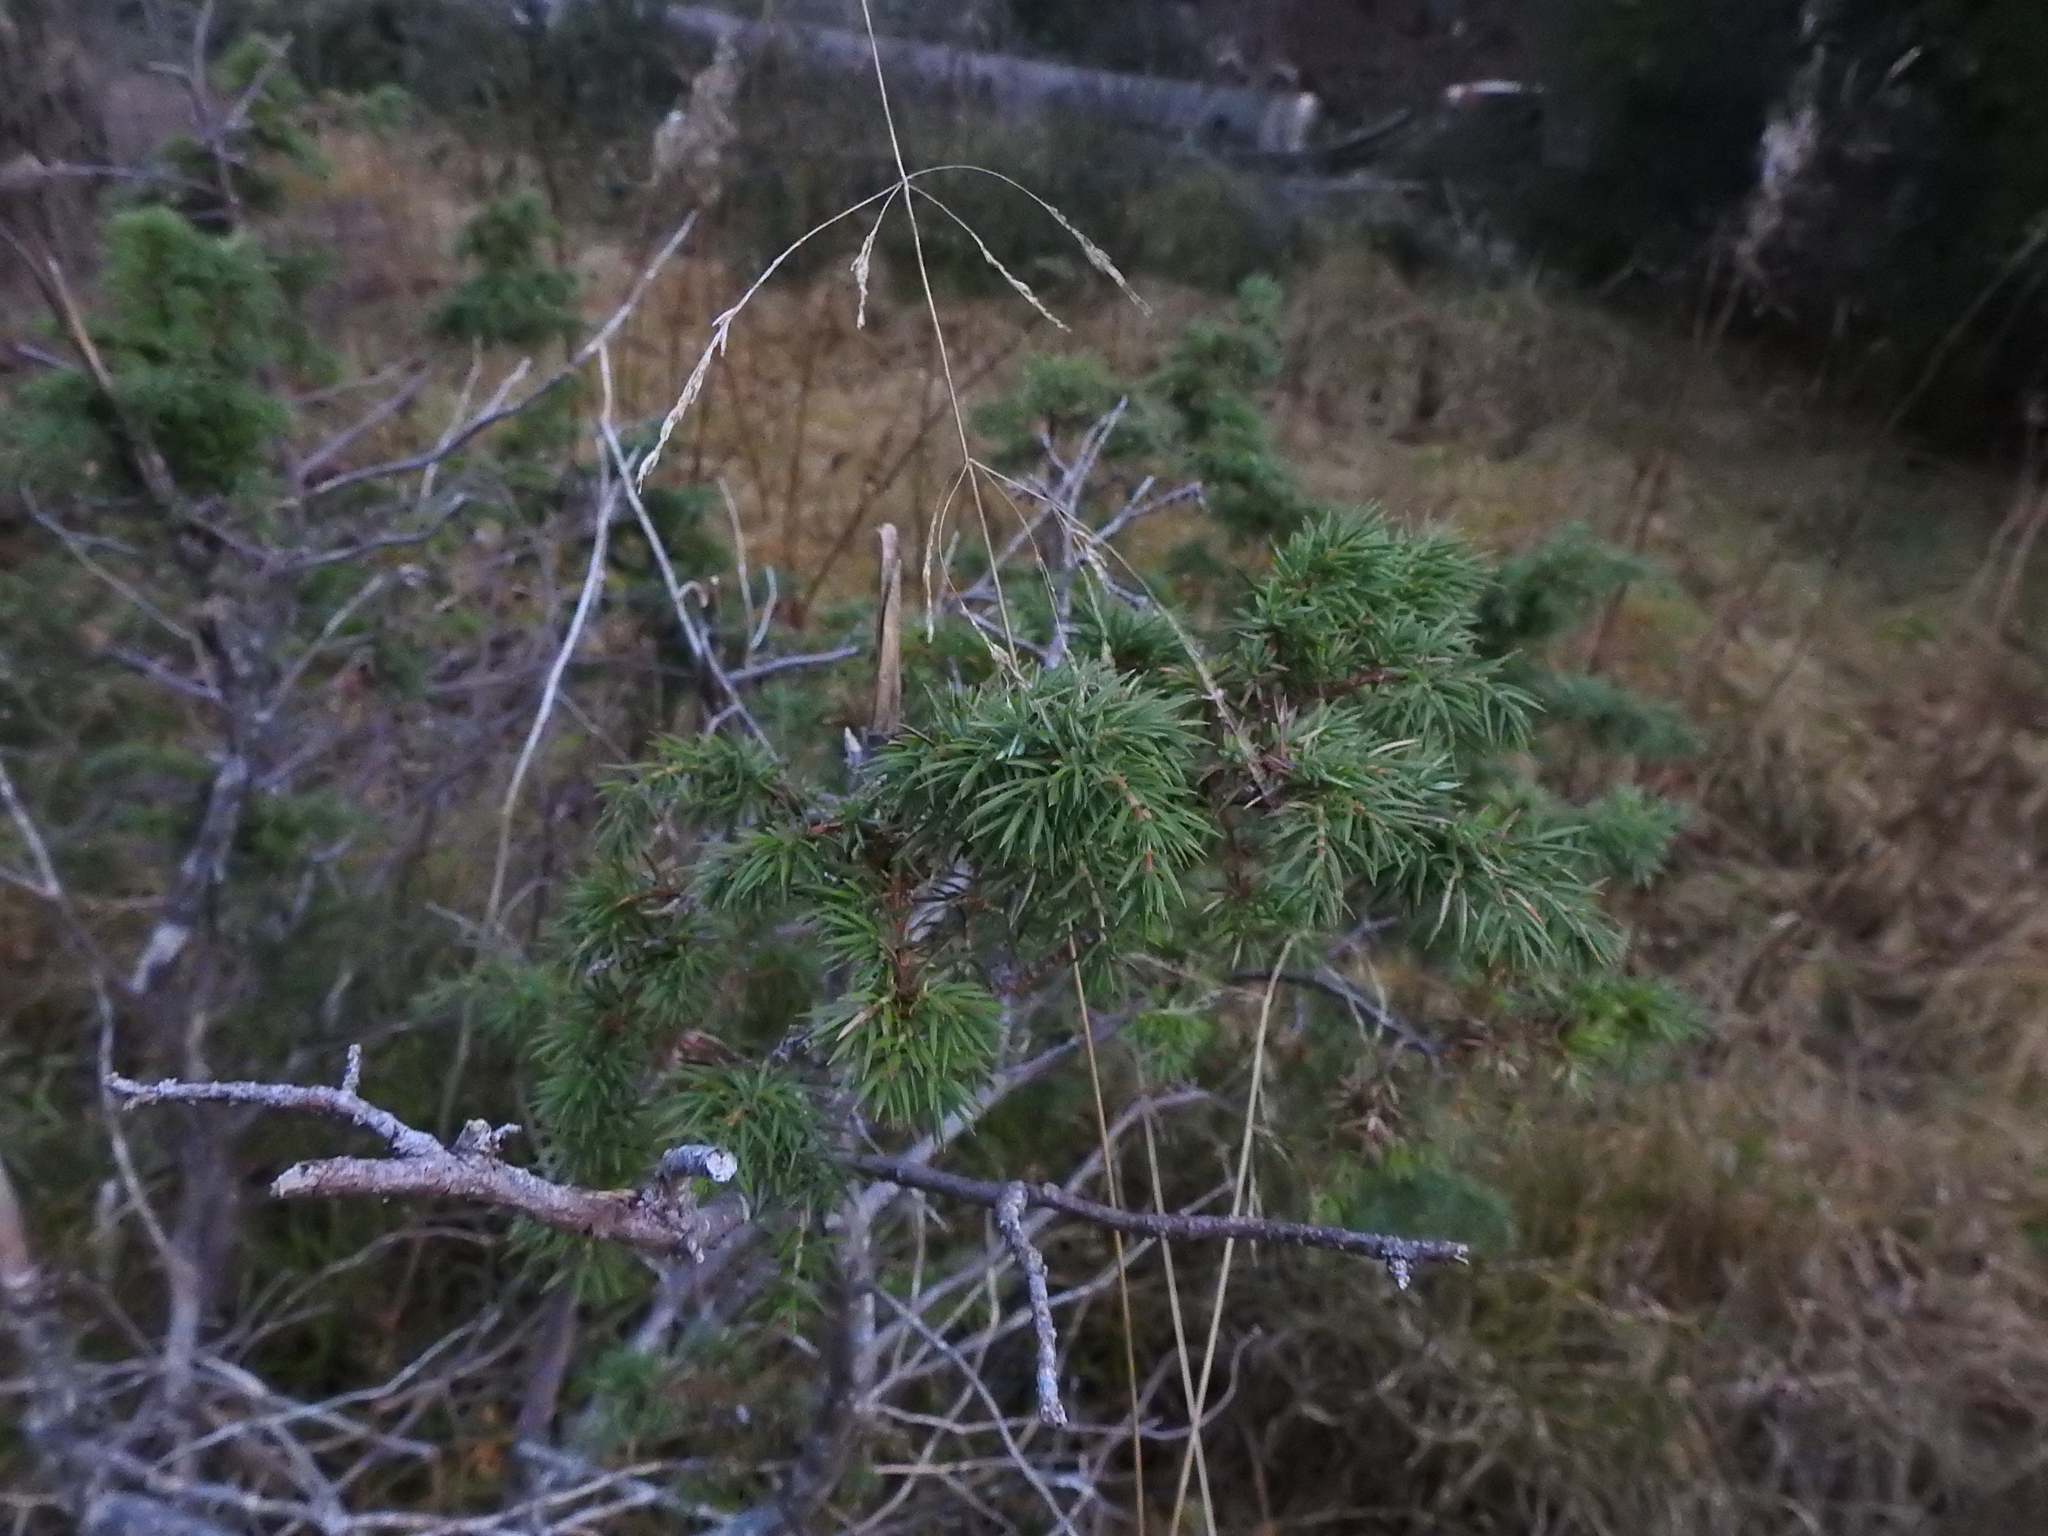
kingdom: Plantae
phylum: Tracheophyta
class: Pinopsida
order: Pinales
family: Cupressaceae
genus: Juniperus
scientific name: Juniperus communis
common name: Common juniper
